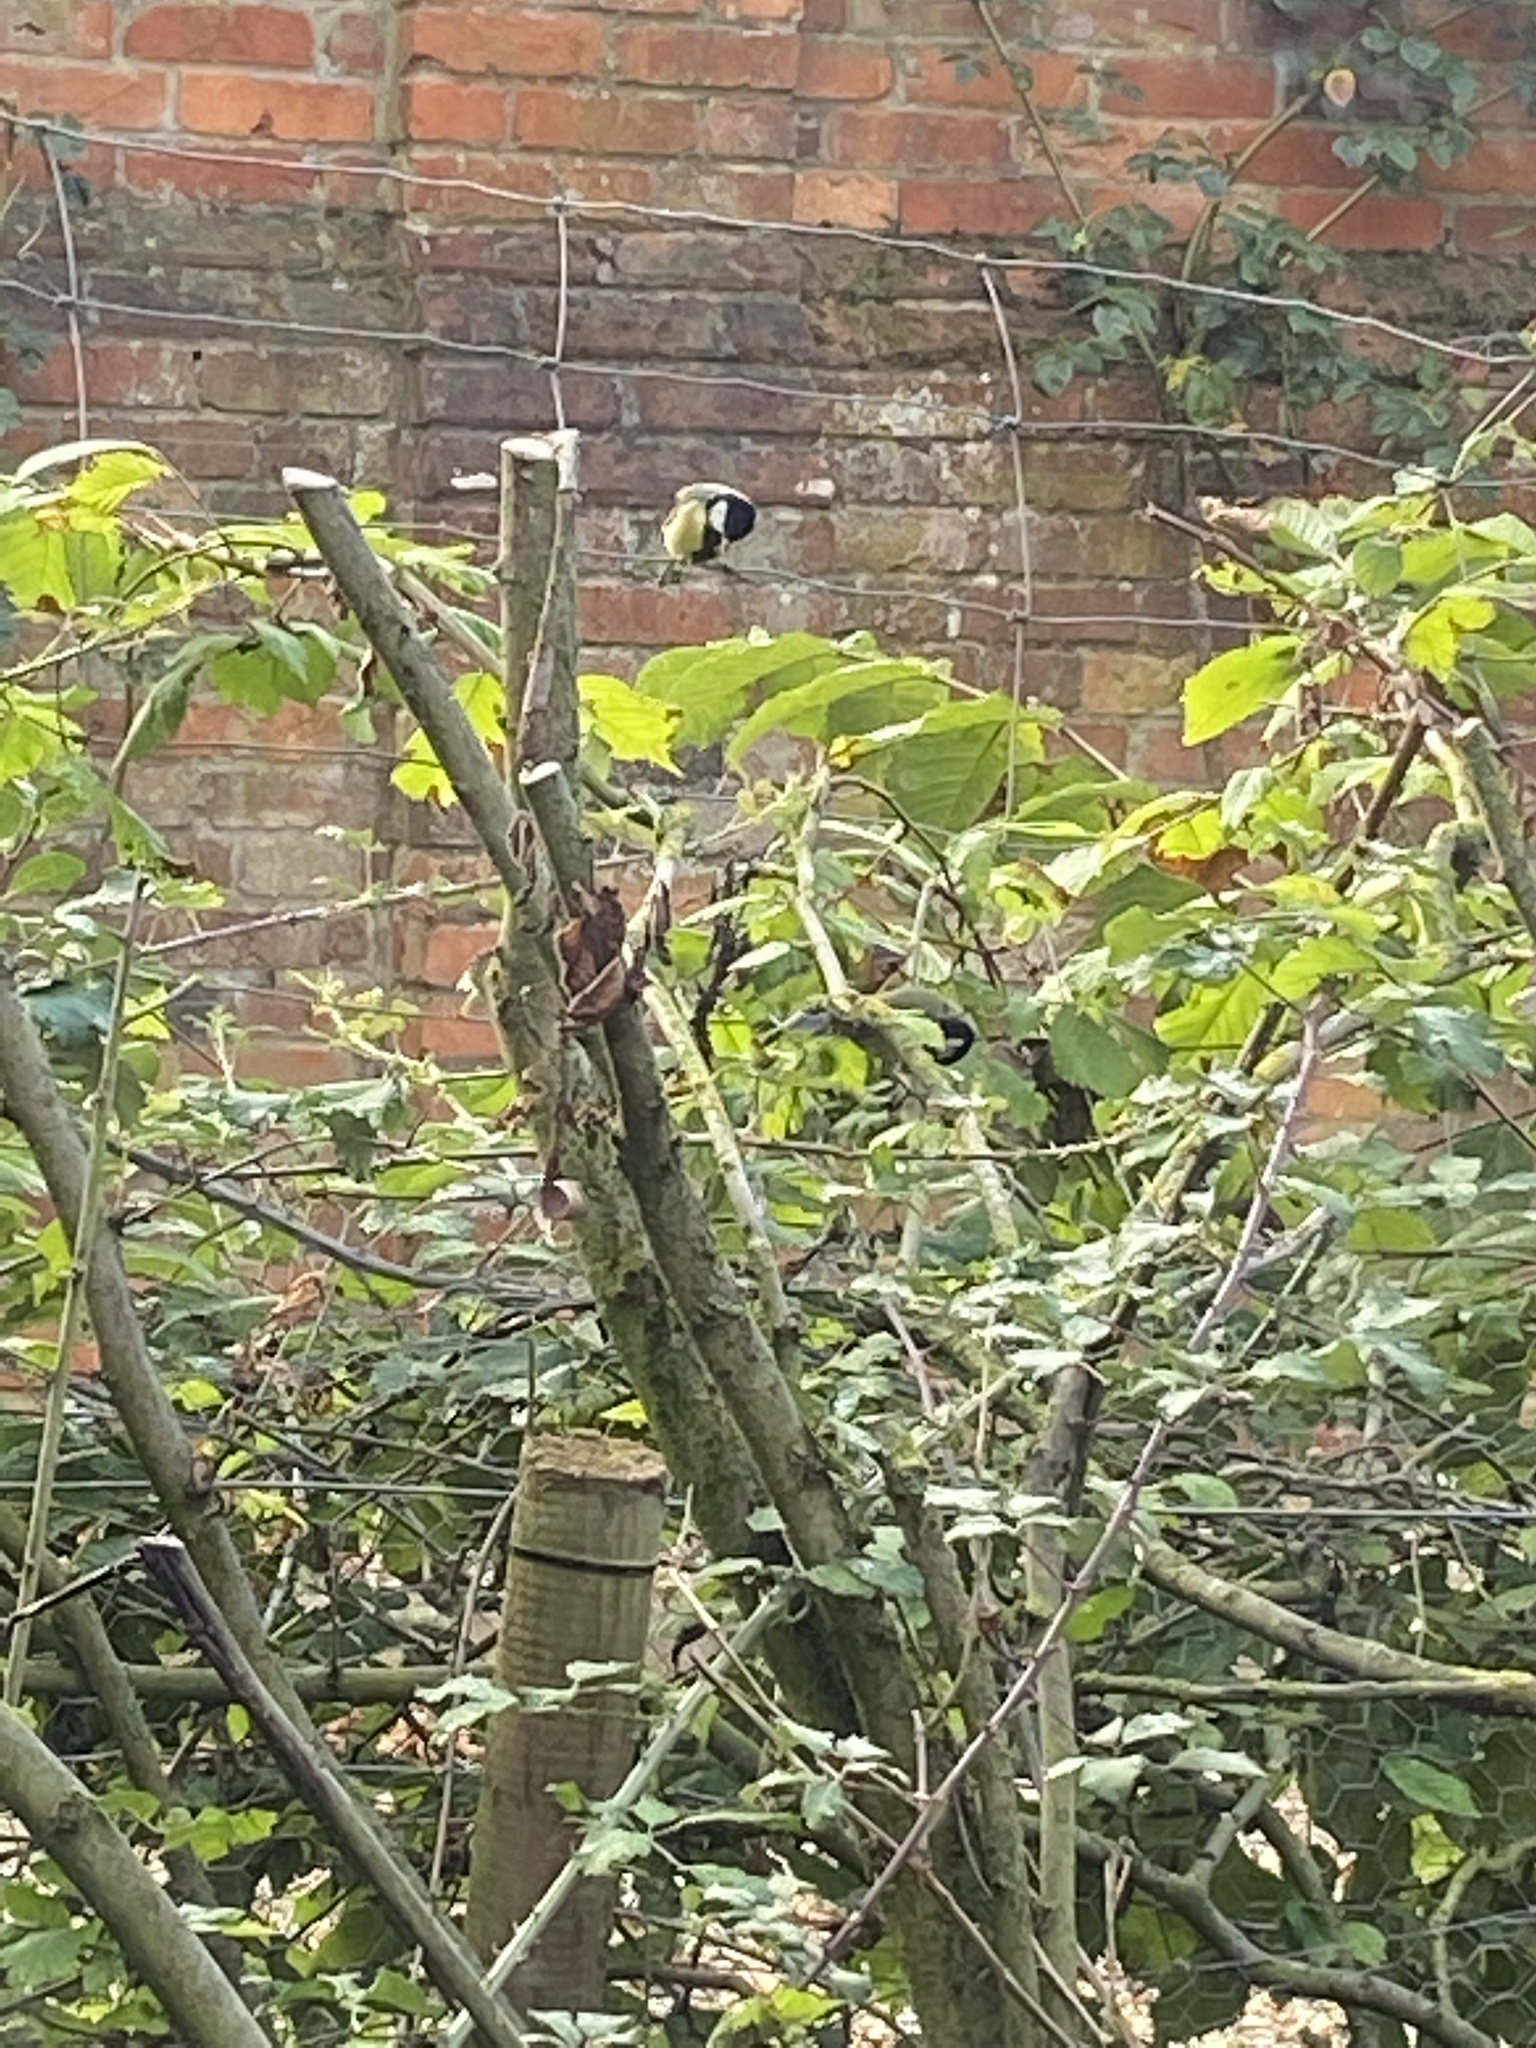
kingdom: Animalia
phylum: Chordata
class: Aves
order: Passeriformes
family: Paridae
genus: Parus
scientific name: Parus major
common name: Great tit
